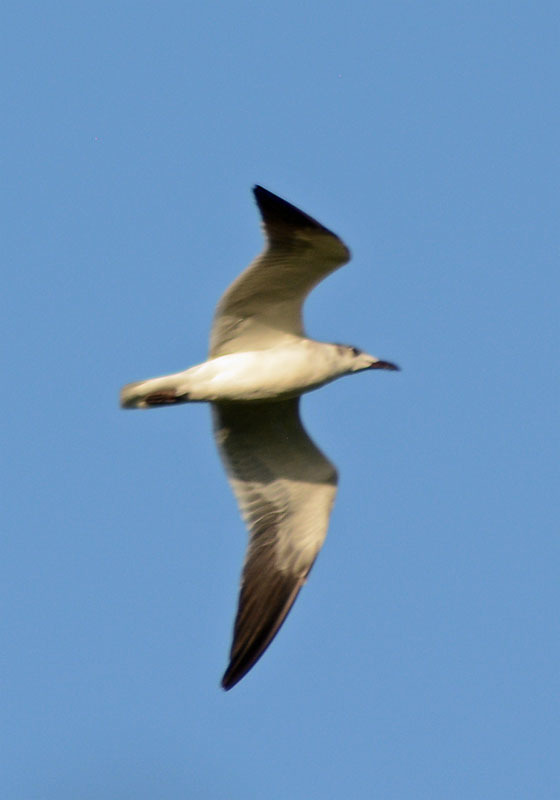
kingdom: Animalia
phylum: Chordata
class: Aves
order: Charadriiformes
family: Laridae
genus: Leucophaeus
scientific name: Leucophaeus atricilla
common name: Laughing gull
